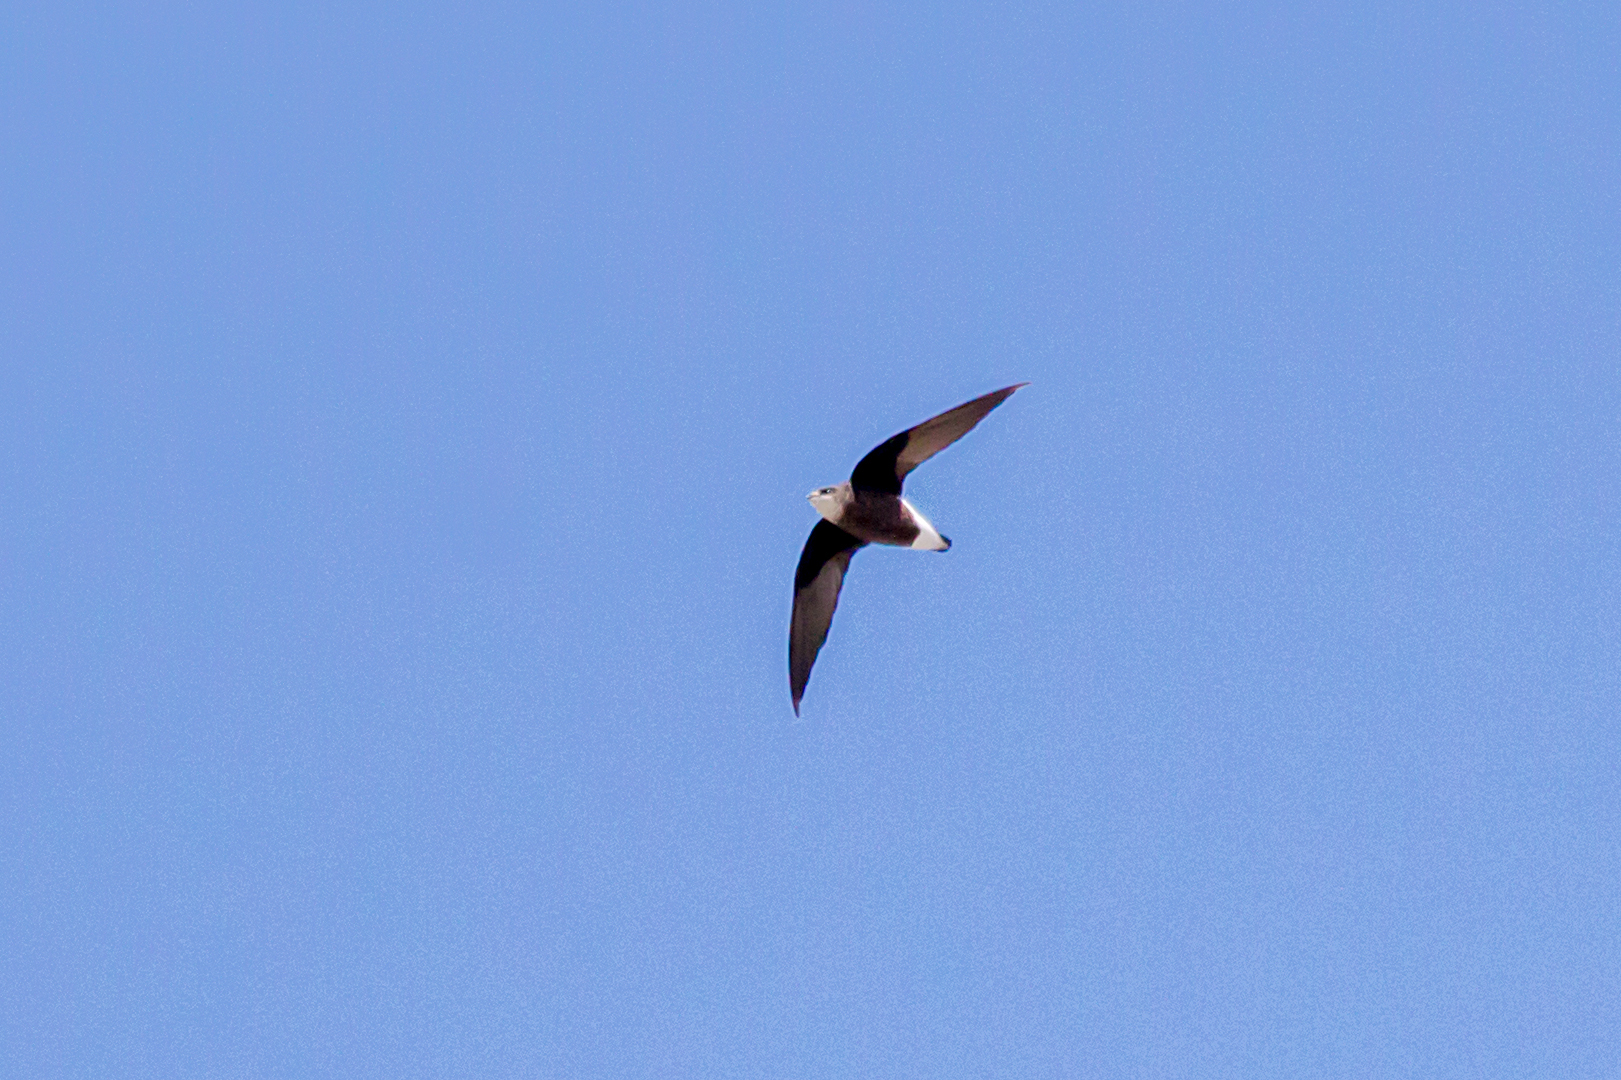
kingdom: Animalia
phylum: Chordata
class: Aves
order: Apodiformes
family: Apodidae
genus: Hirundapus
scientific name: Hirundapus caudacutus
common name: White-throated needletail
